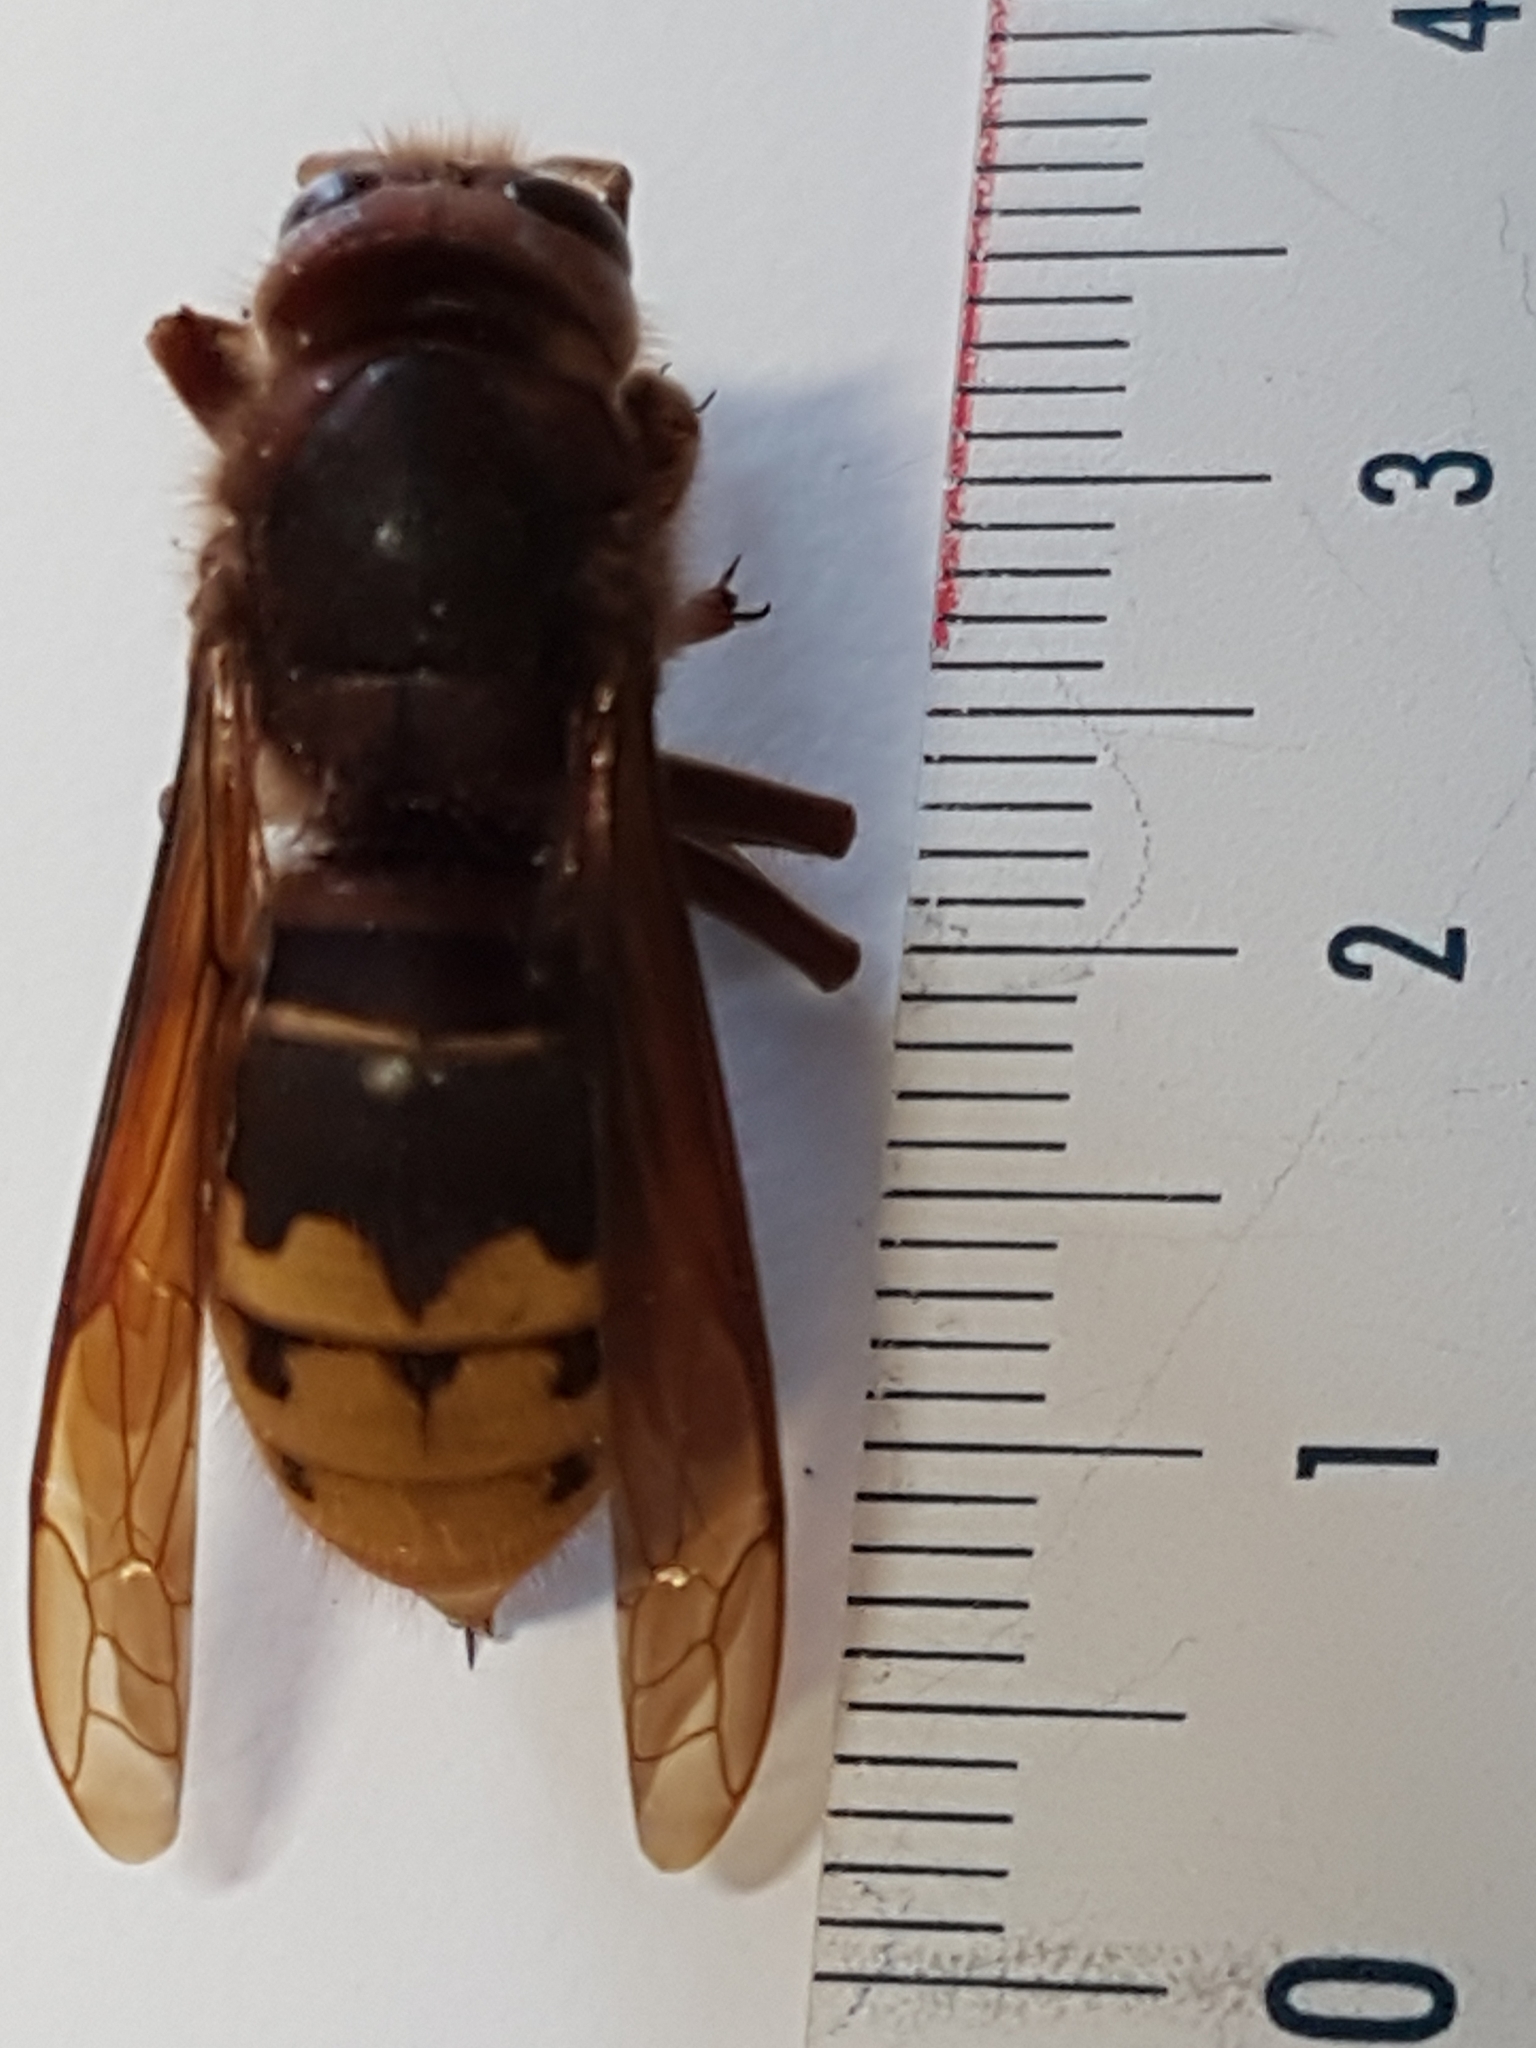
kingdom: Animalia
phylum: Arthropoda
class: Insecta
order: Hymenoptera
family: Vespidae
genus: Vespa
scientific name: Vespa crabro
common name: Hornet
